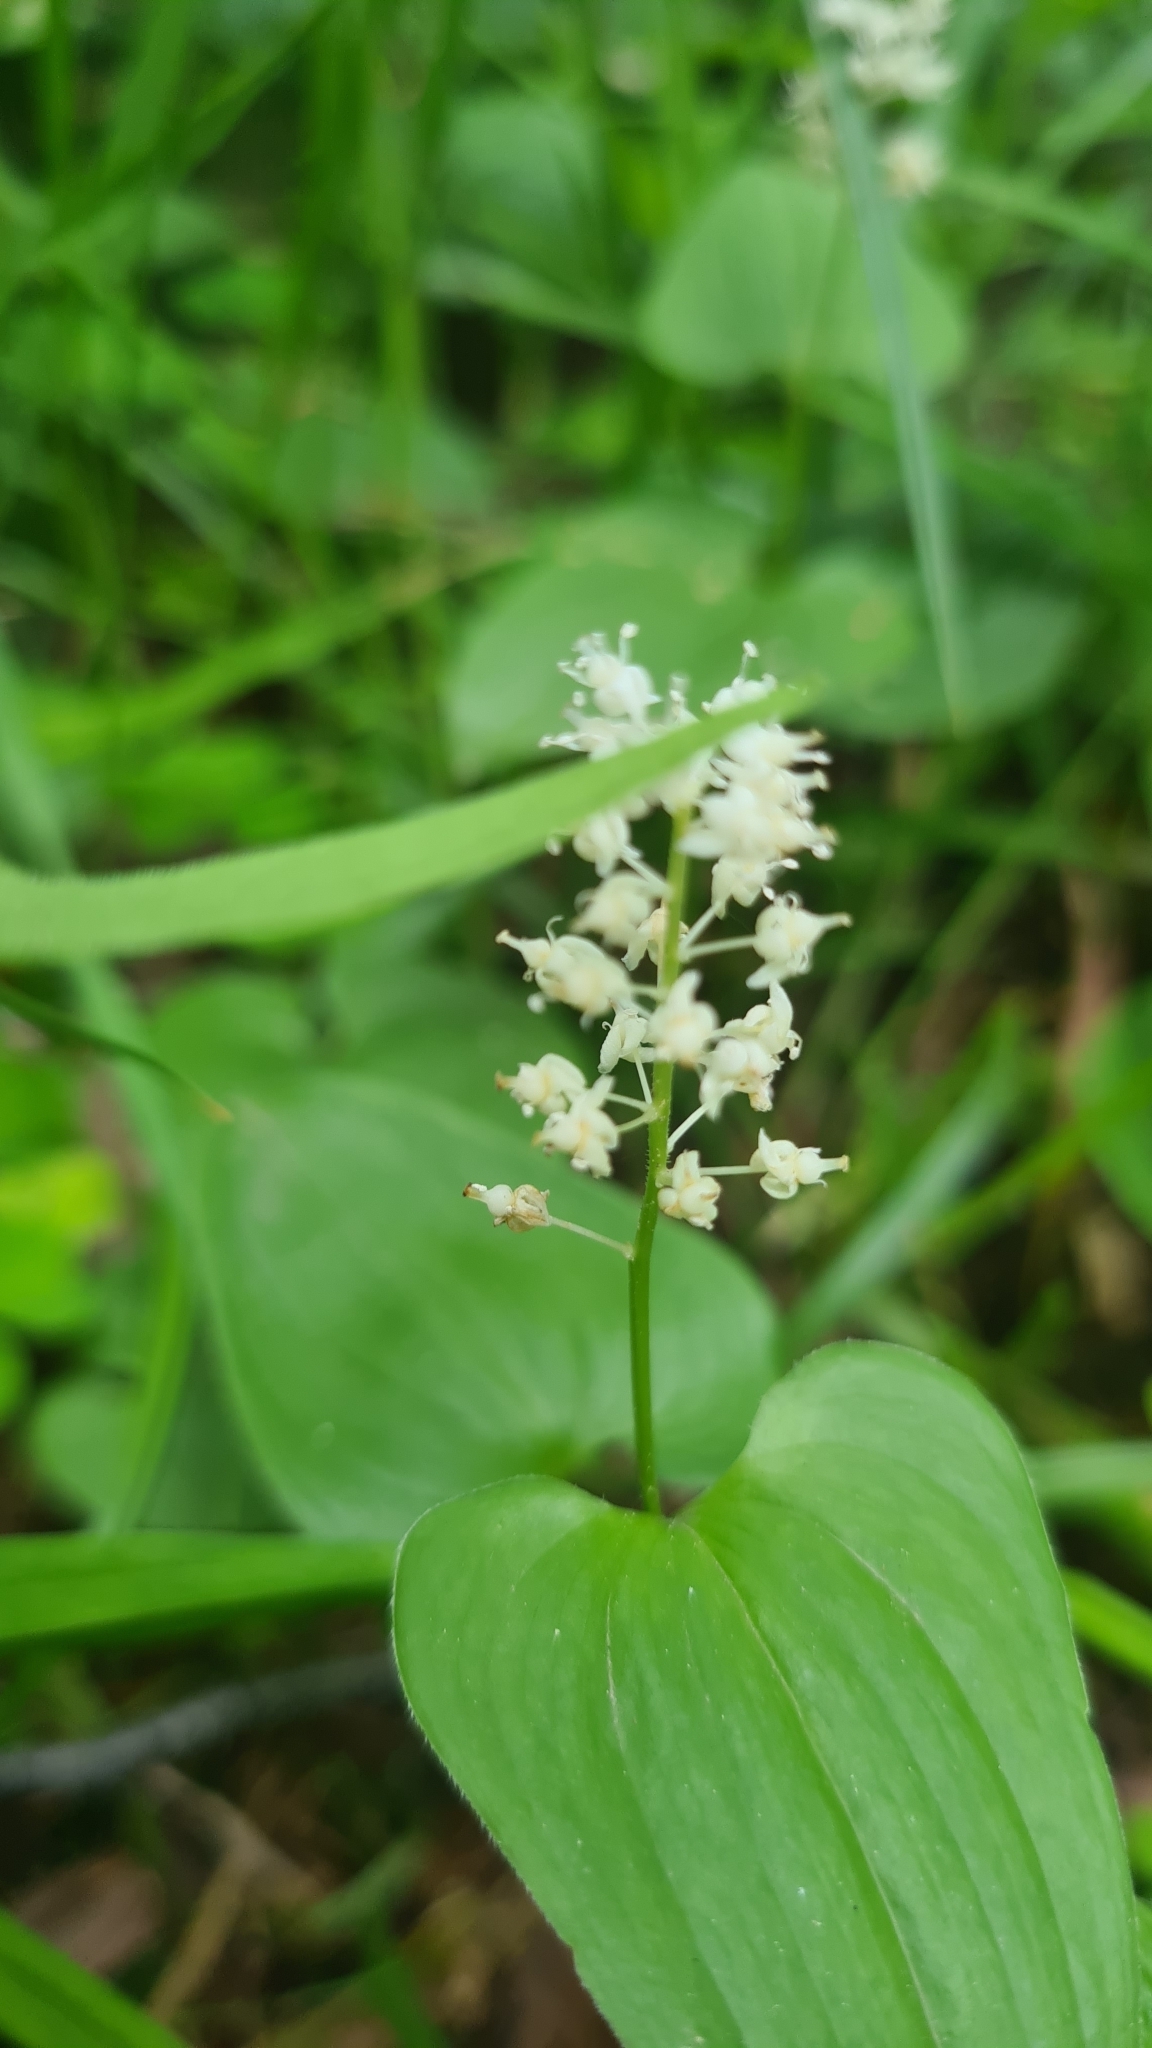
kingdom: Plantae
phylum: Tracheophyta
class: Liliopsida
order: Asparagales
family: Asparagaceae
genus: Maianthemum
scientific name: Maianthemum bifolium
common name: May lily
